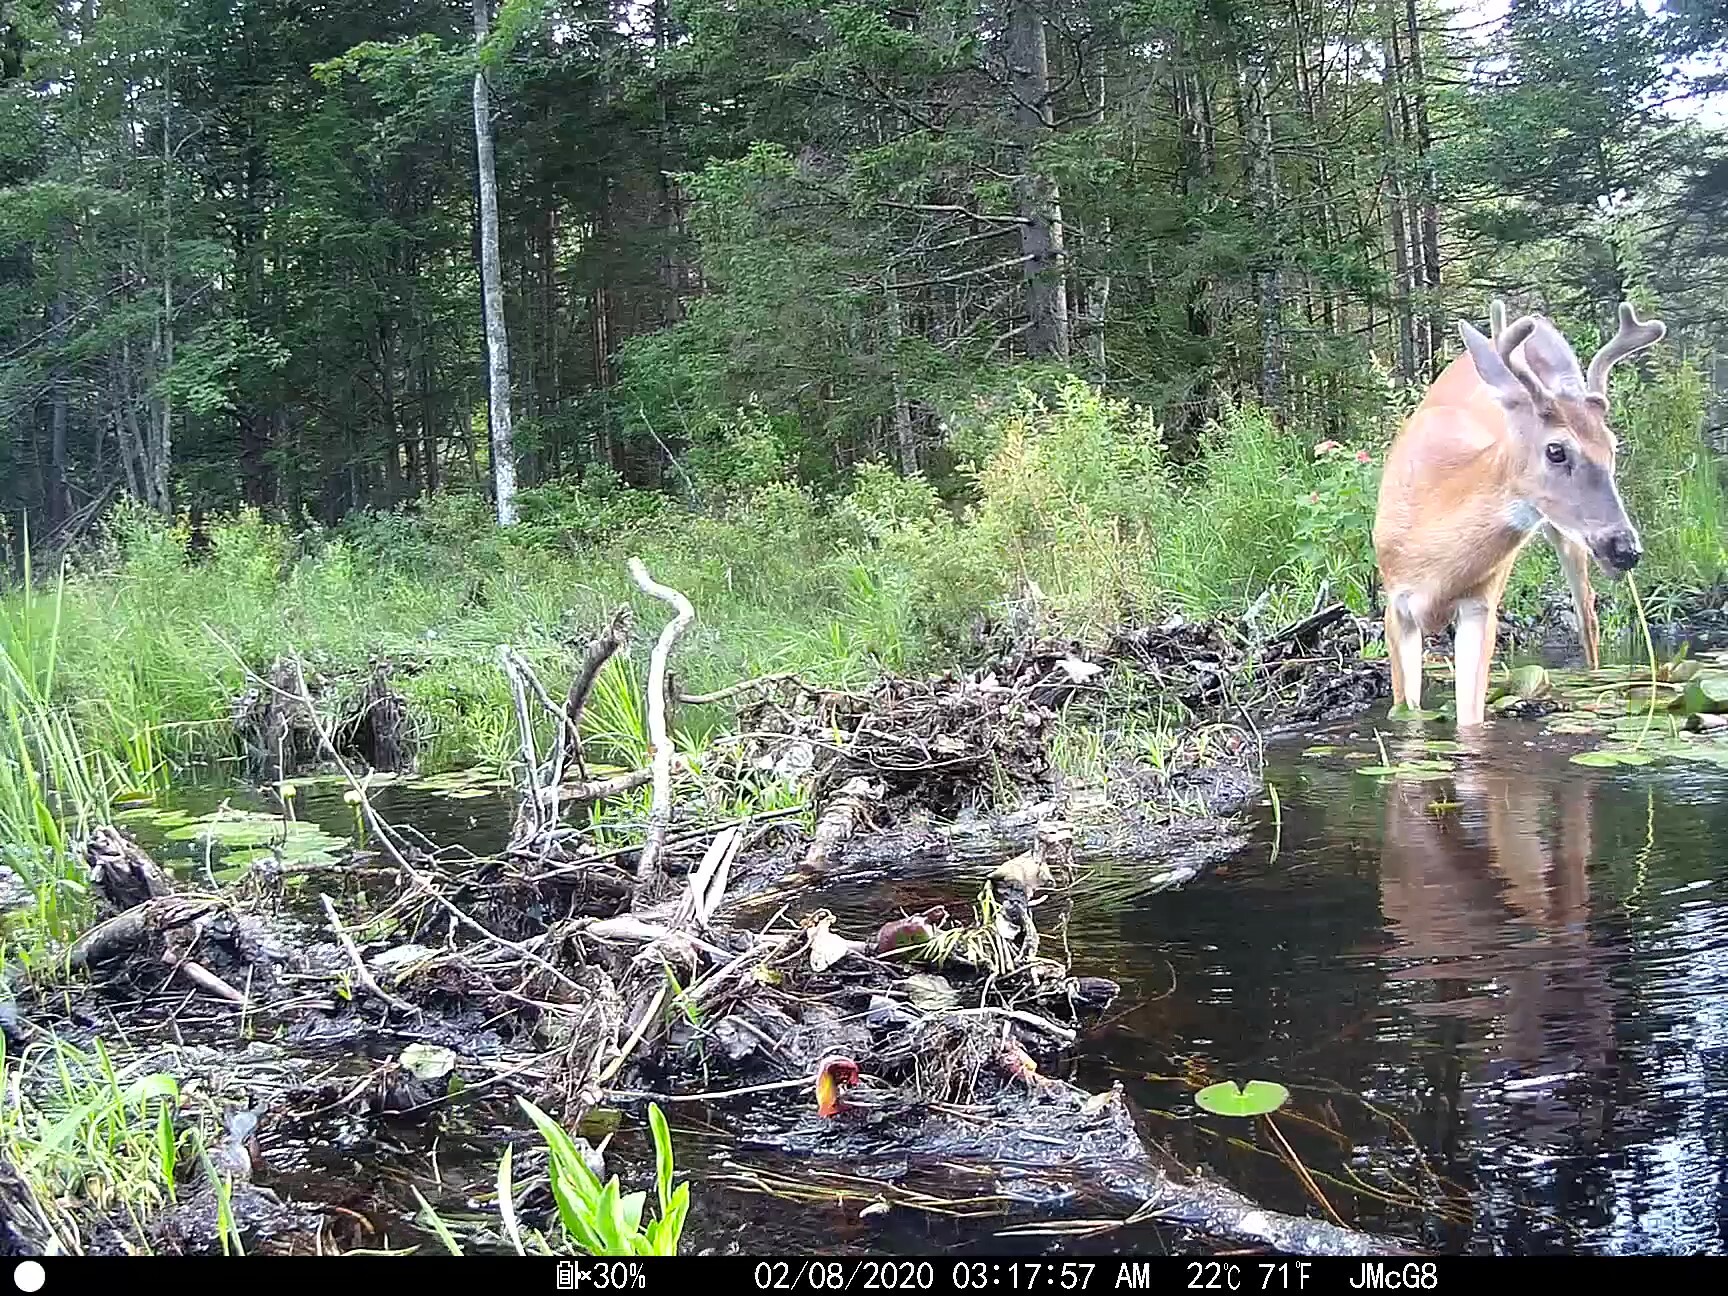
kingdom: Animalia
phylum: Chordata
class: Mammalia
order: Artiodactyla
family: Cervidae
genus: Odocoileus
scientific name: Odocoileus virginianus
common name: White-tailed deer
